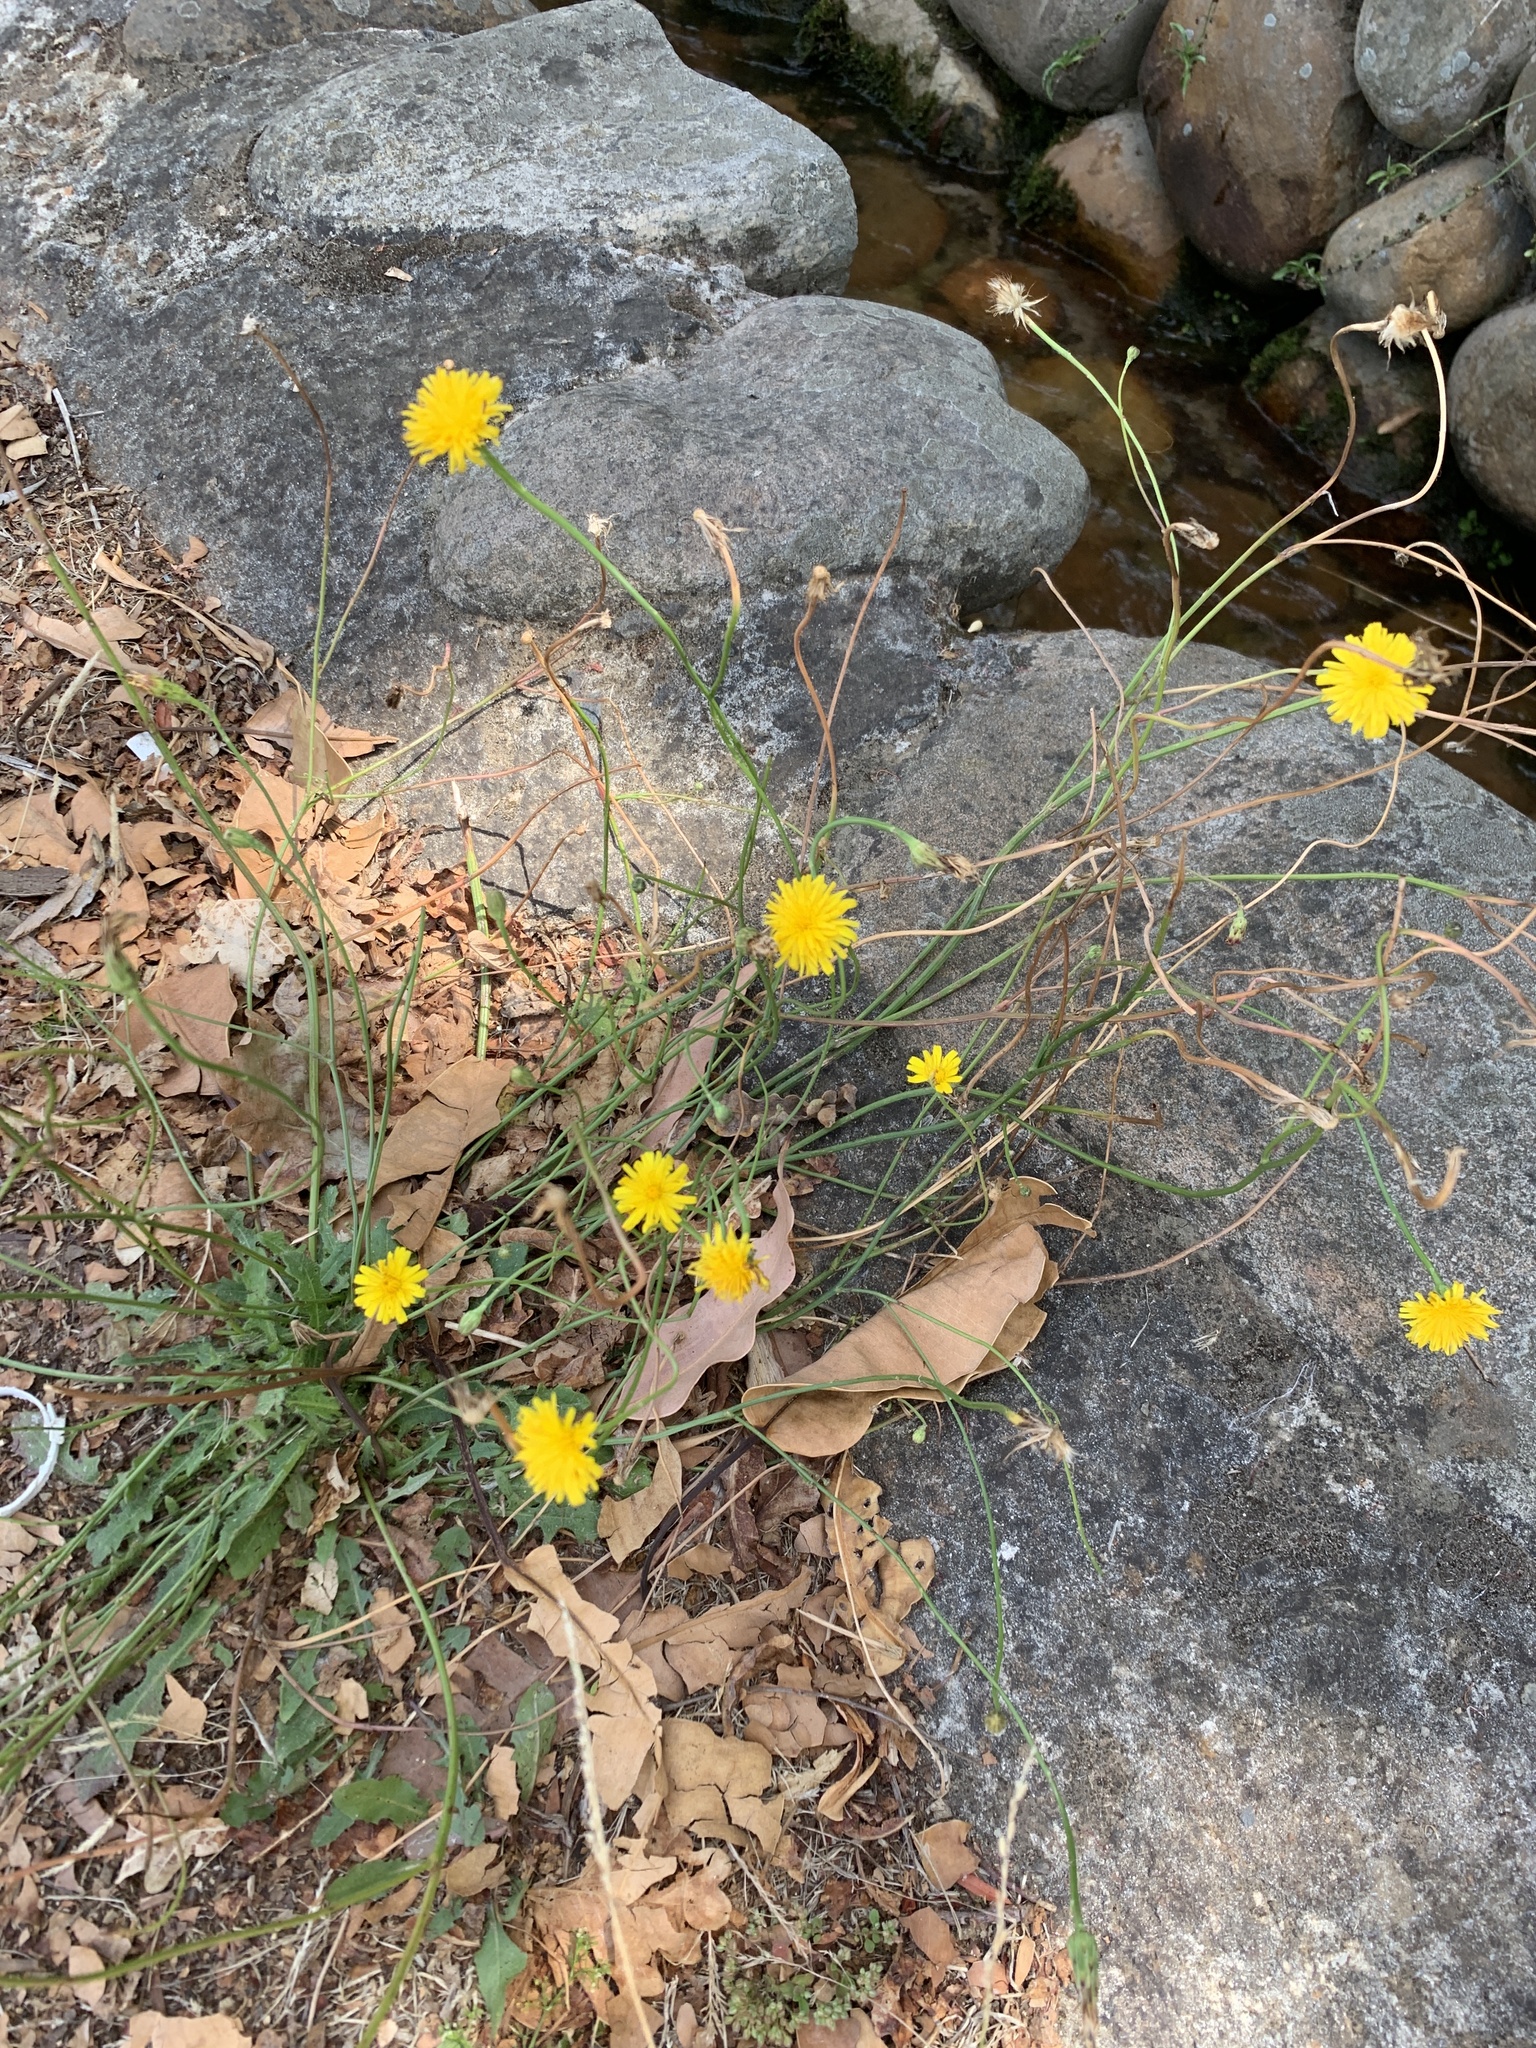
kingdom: Plantae
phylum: Tracheophyta
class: Magnoliopsida
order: Asterales
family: Asteraceae
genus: Hypochaeris
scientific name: Hypochaeris radicata
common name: Flatweed
